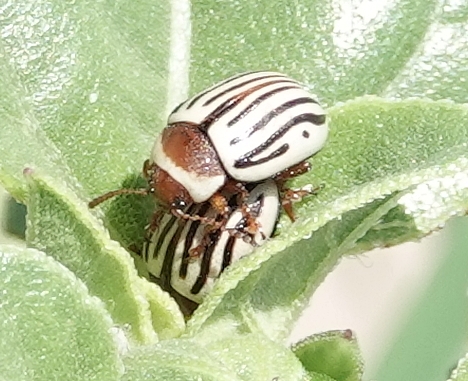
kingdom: Animalia
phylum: Arthropoda
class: Insecta
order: Coleoptera
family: Chrysomelidae
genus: Calligrapha
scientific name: Calligrapha
